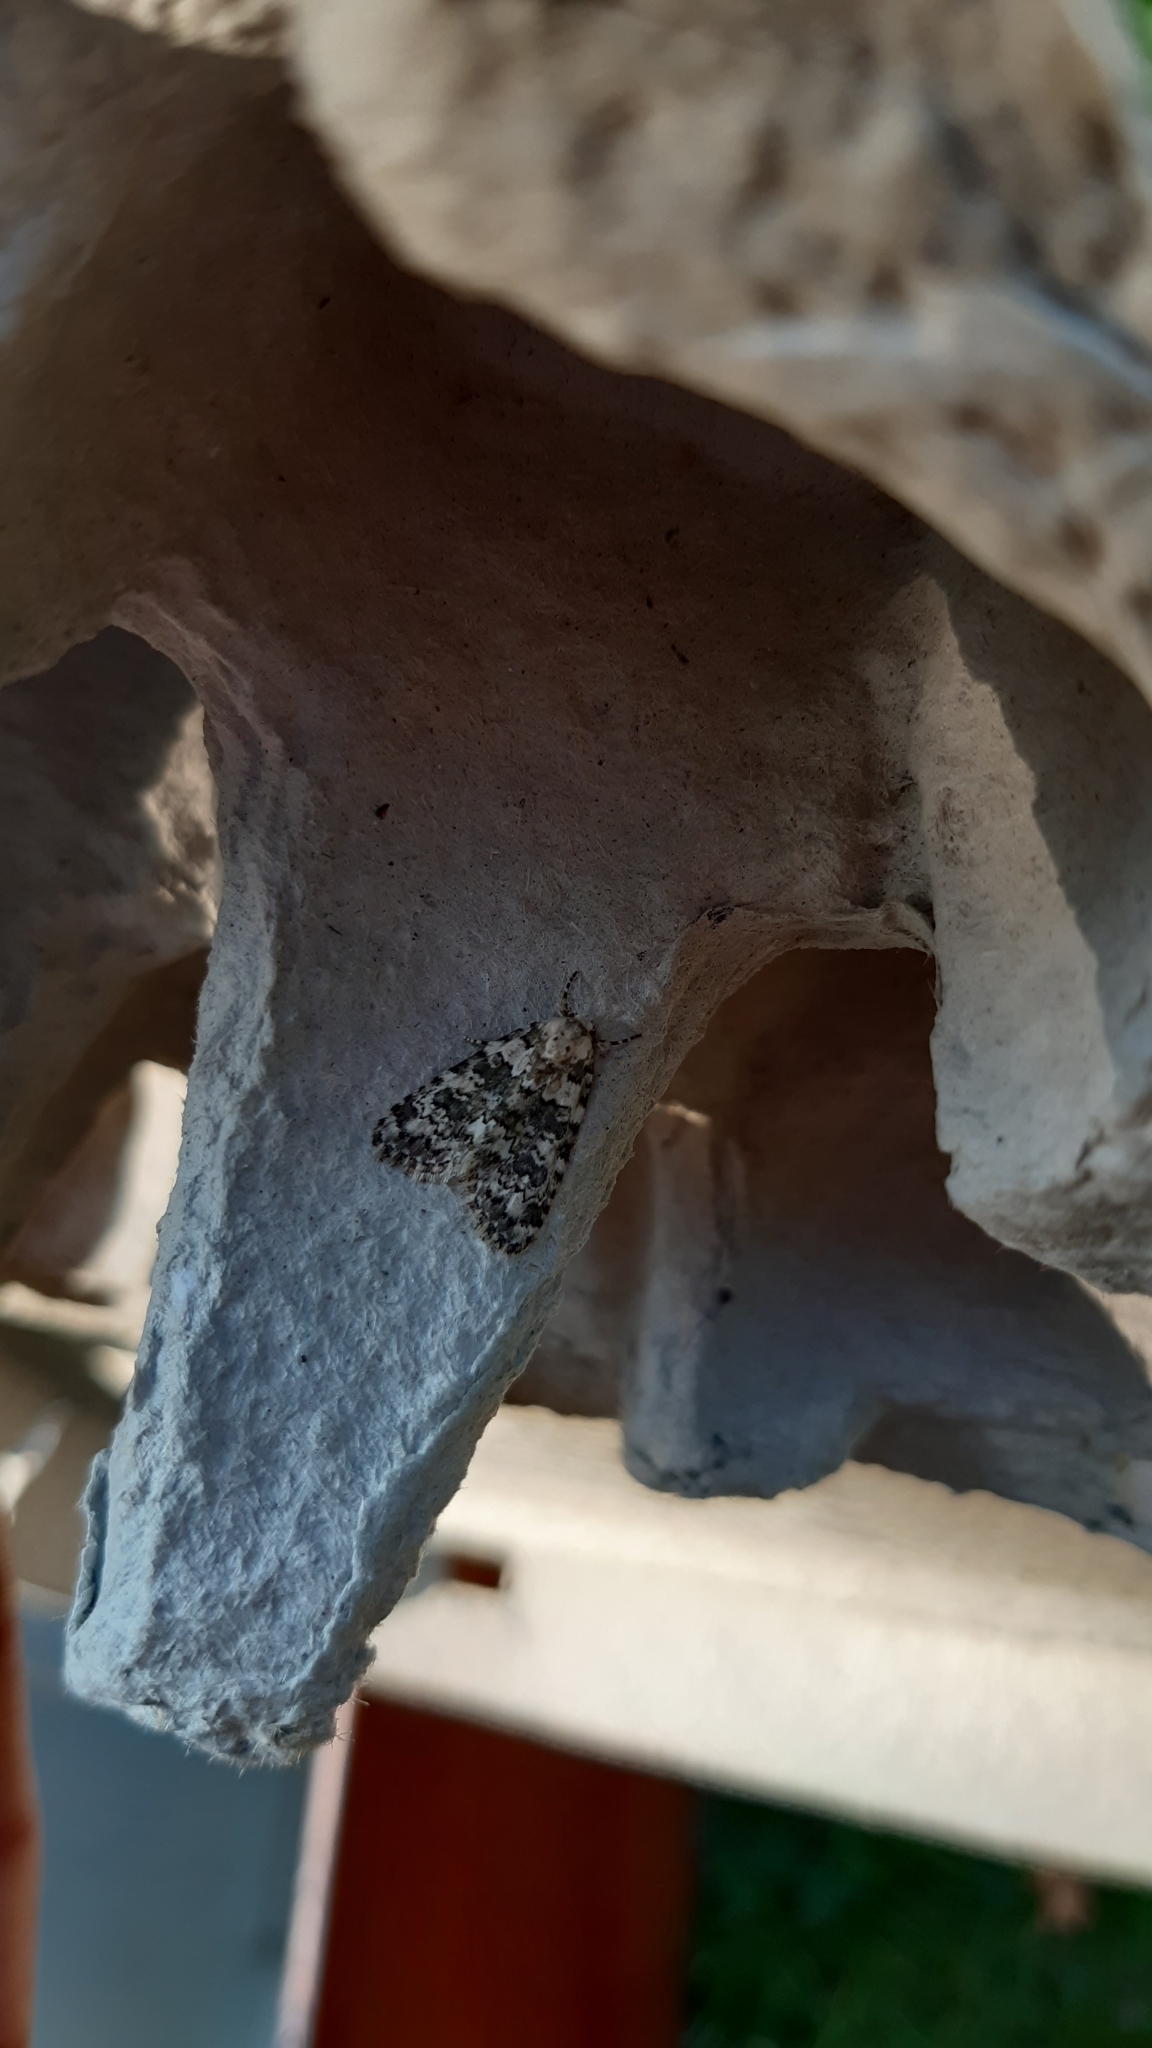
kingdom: Animalia
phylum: Arthropoda
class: Insecta
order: Lepidoptera
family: Noctuidae
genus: Bryophila
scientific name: Bryophila domestica
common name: Marbled beauty
